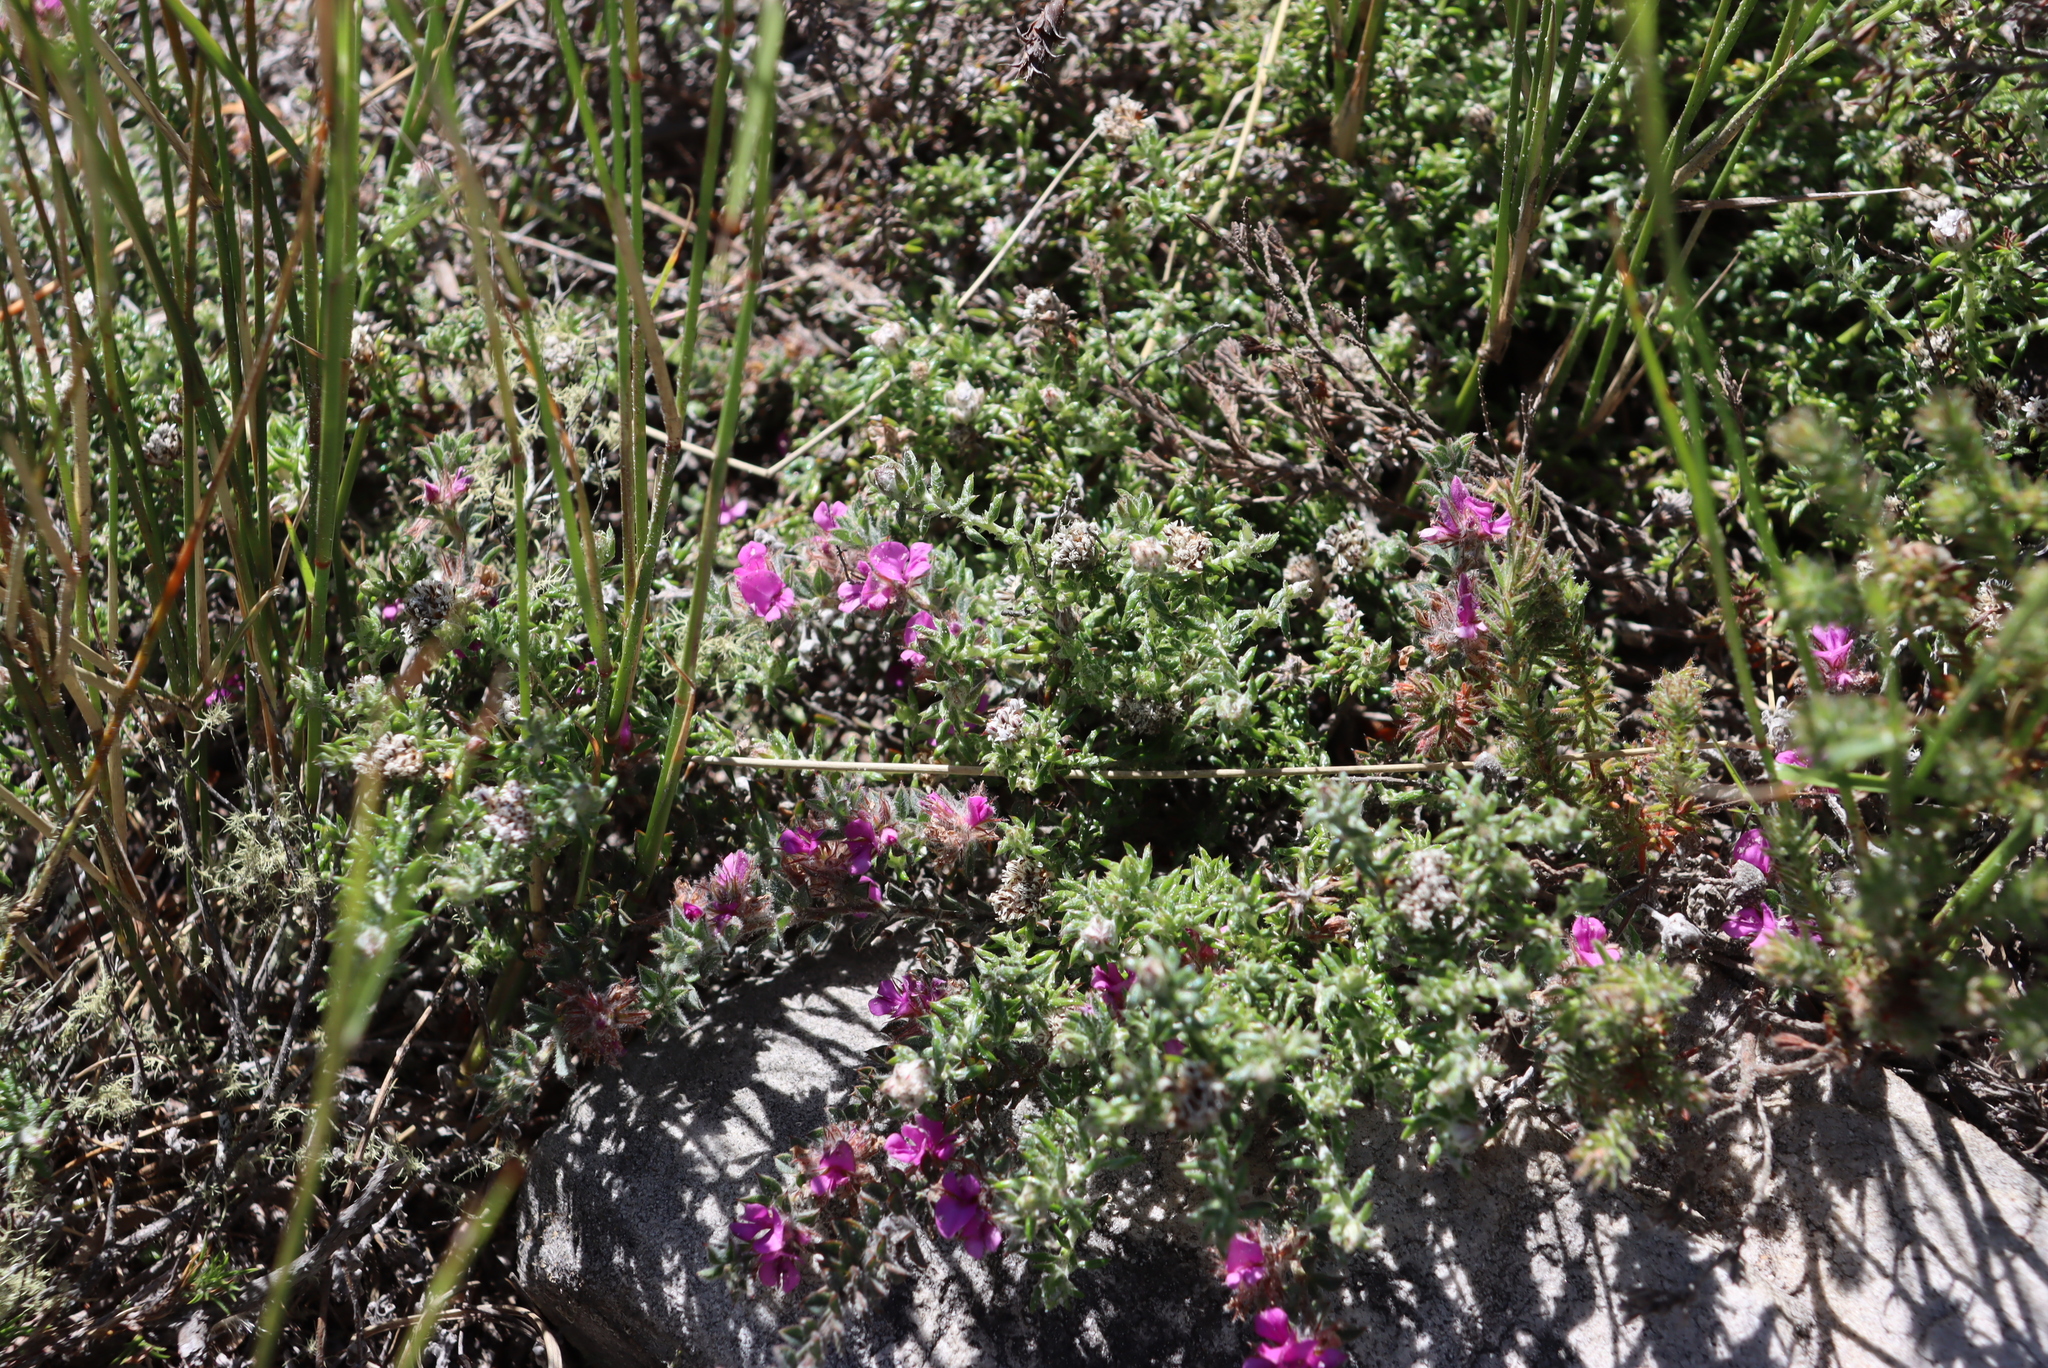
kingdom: Plantae
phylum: Tracheophyta
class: Magnoliopsida
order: Fabales
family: Fabaceae
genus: Indigofera
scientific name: Indigofera glomerata
